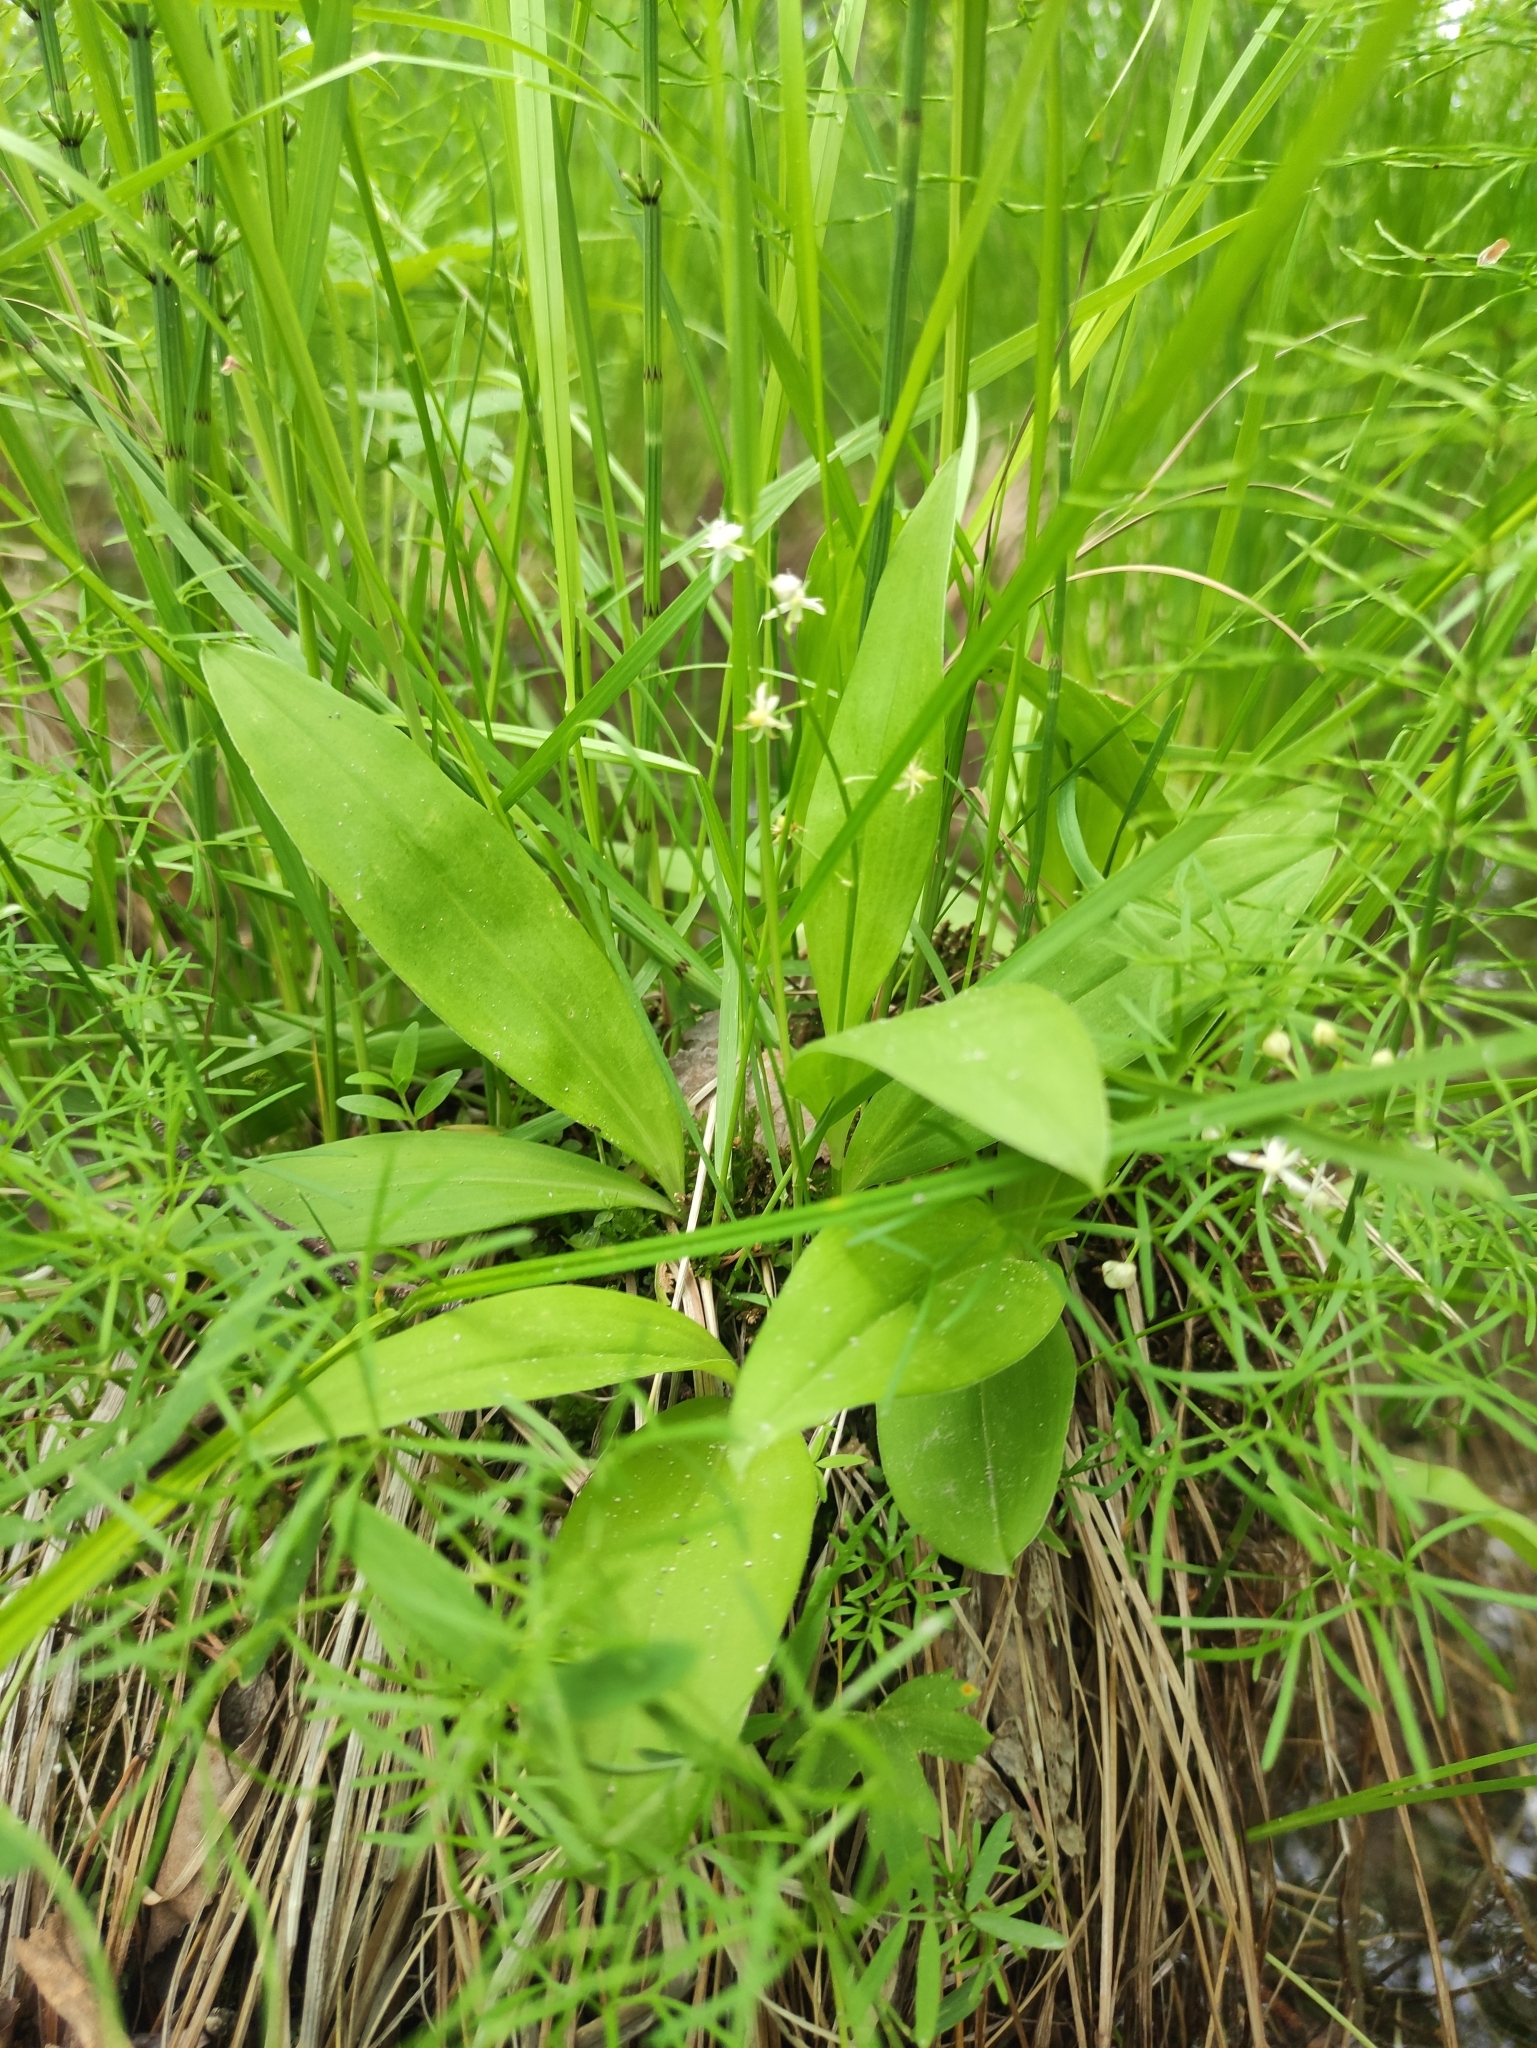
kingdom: Plantae
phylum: Tracheophyta
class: Liliopsida
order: Asparagales
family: Asparagaceae
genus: Maianthemum
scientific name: Maianthemum trifolium
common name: Swamp false solomon's seal
